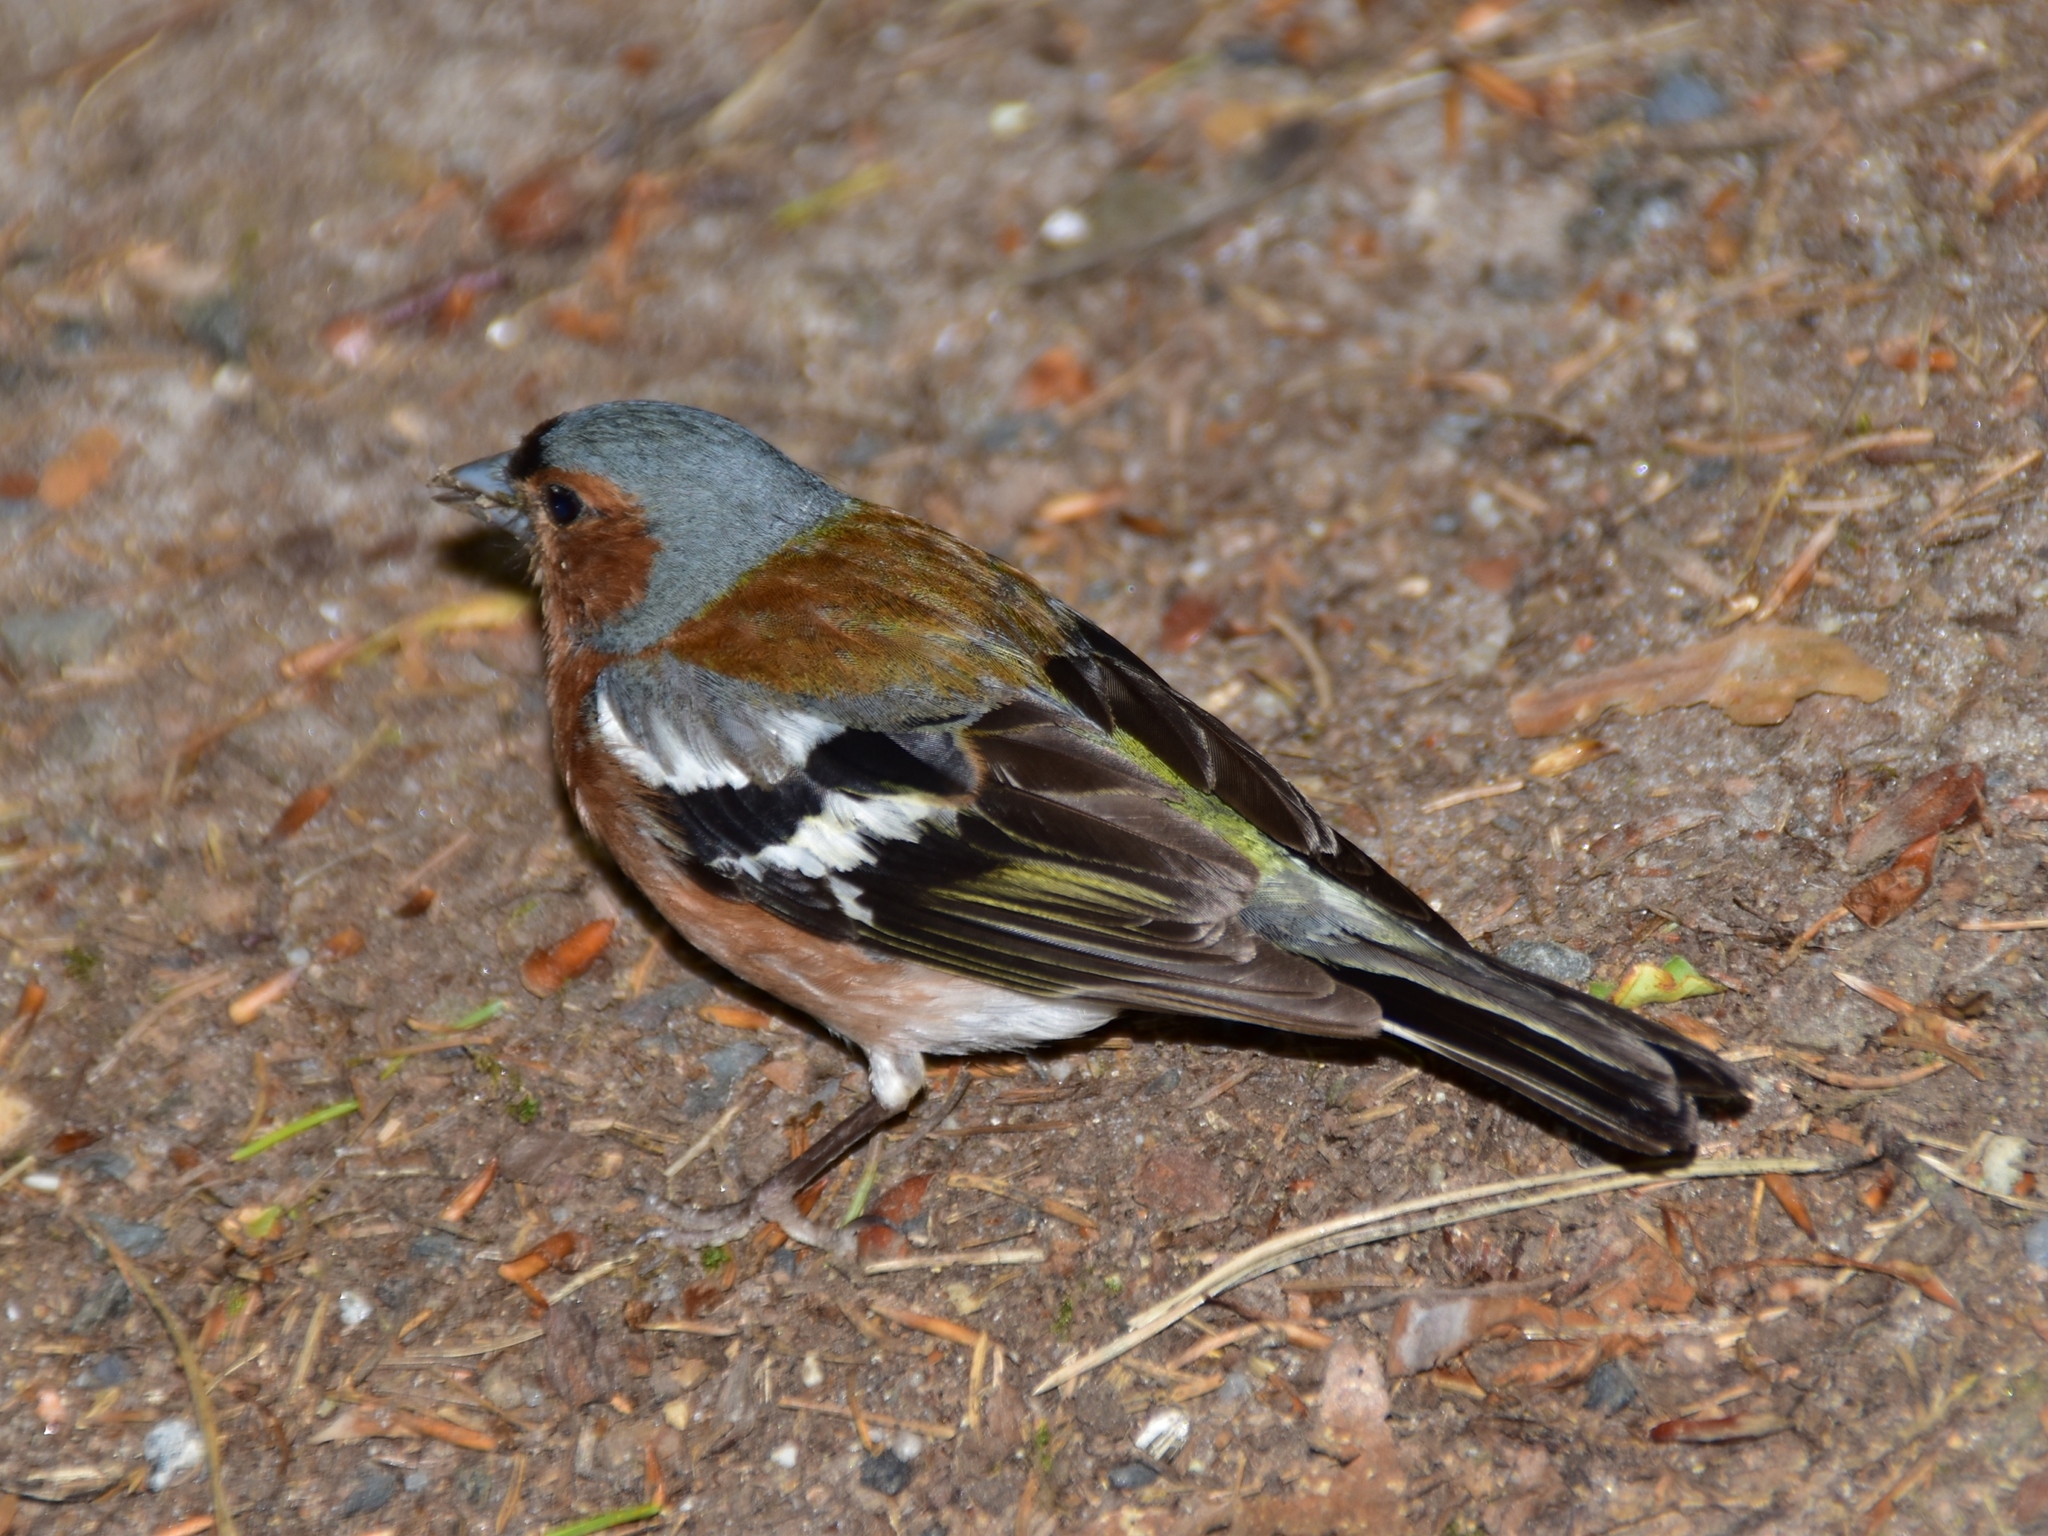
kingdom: Animalia
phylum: Chordata
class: Aves
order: Passeriformes
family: Fringillidae
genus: Fringilla
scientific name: Fringilla coelebs
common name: Common chaffinch
